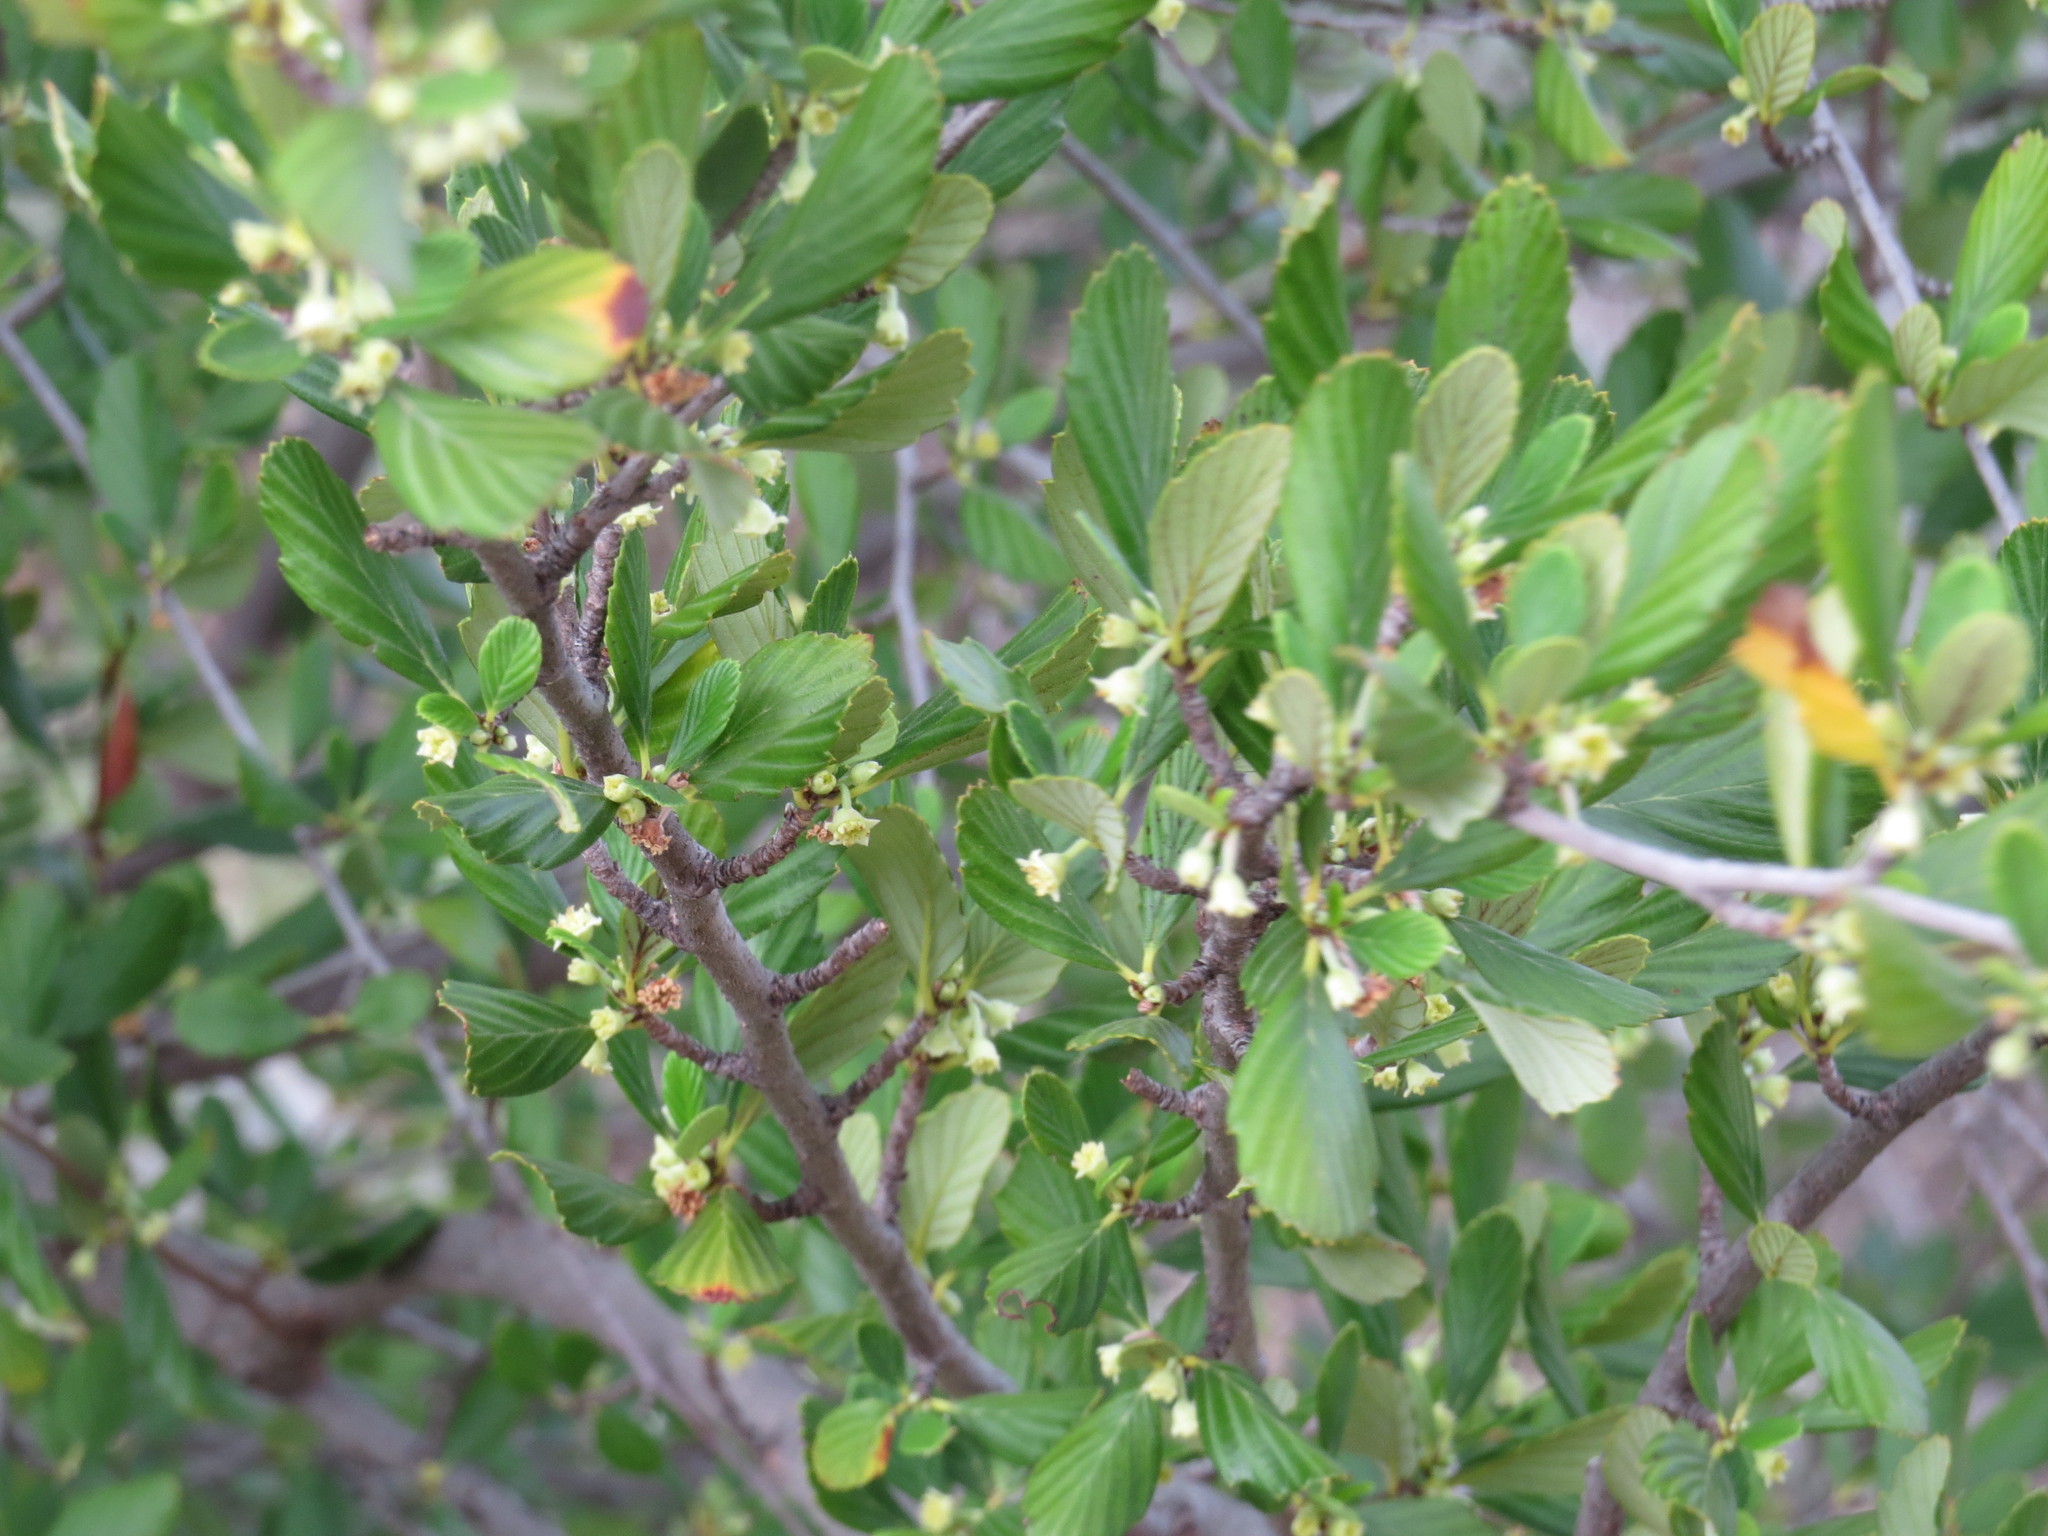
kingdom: Plantae
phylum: Tracheophyta
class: Magnoliopsida
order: Rosales
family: Rosaceae
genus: Cercocarpus
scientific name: Cercocarpus montanus
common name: Alder-leaf cercocarpus
